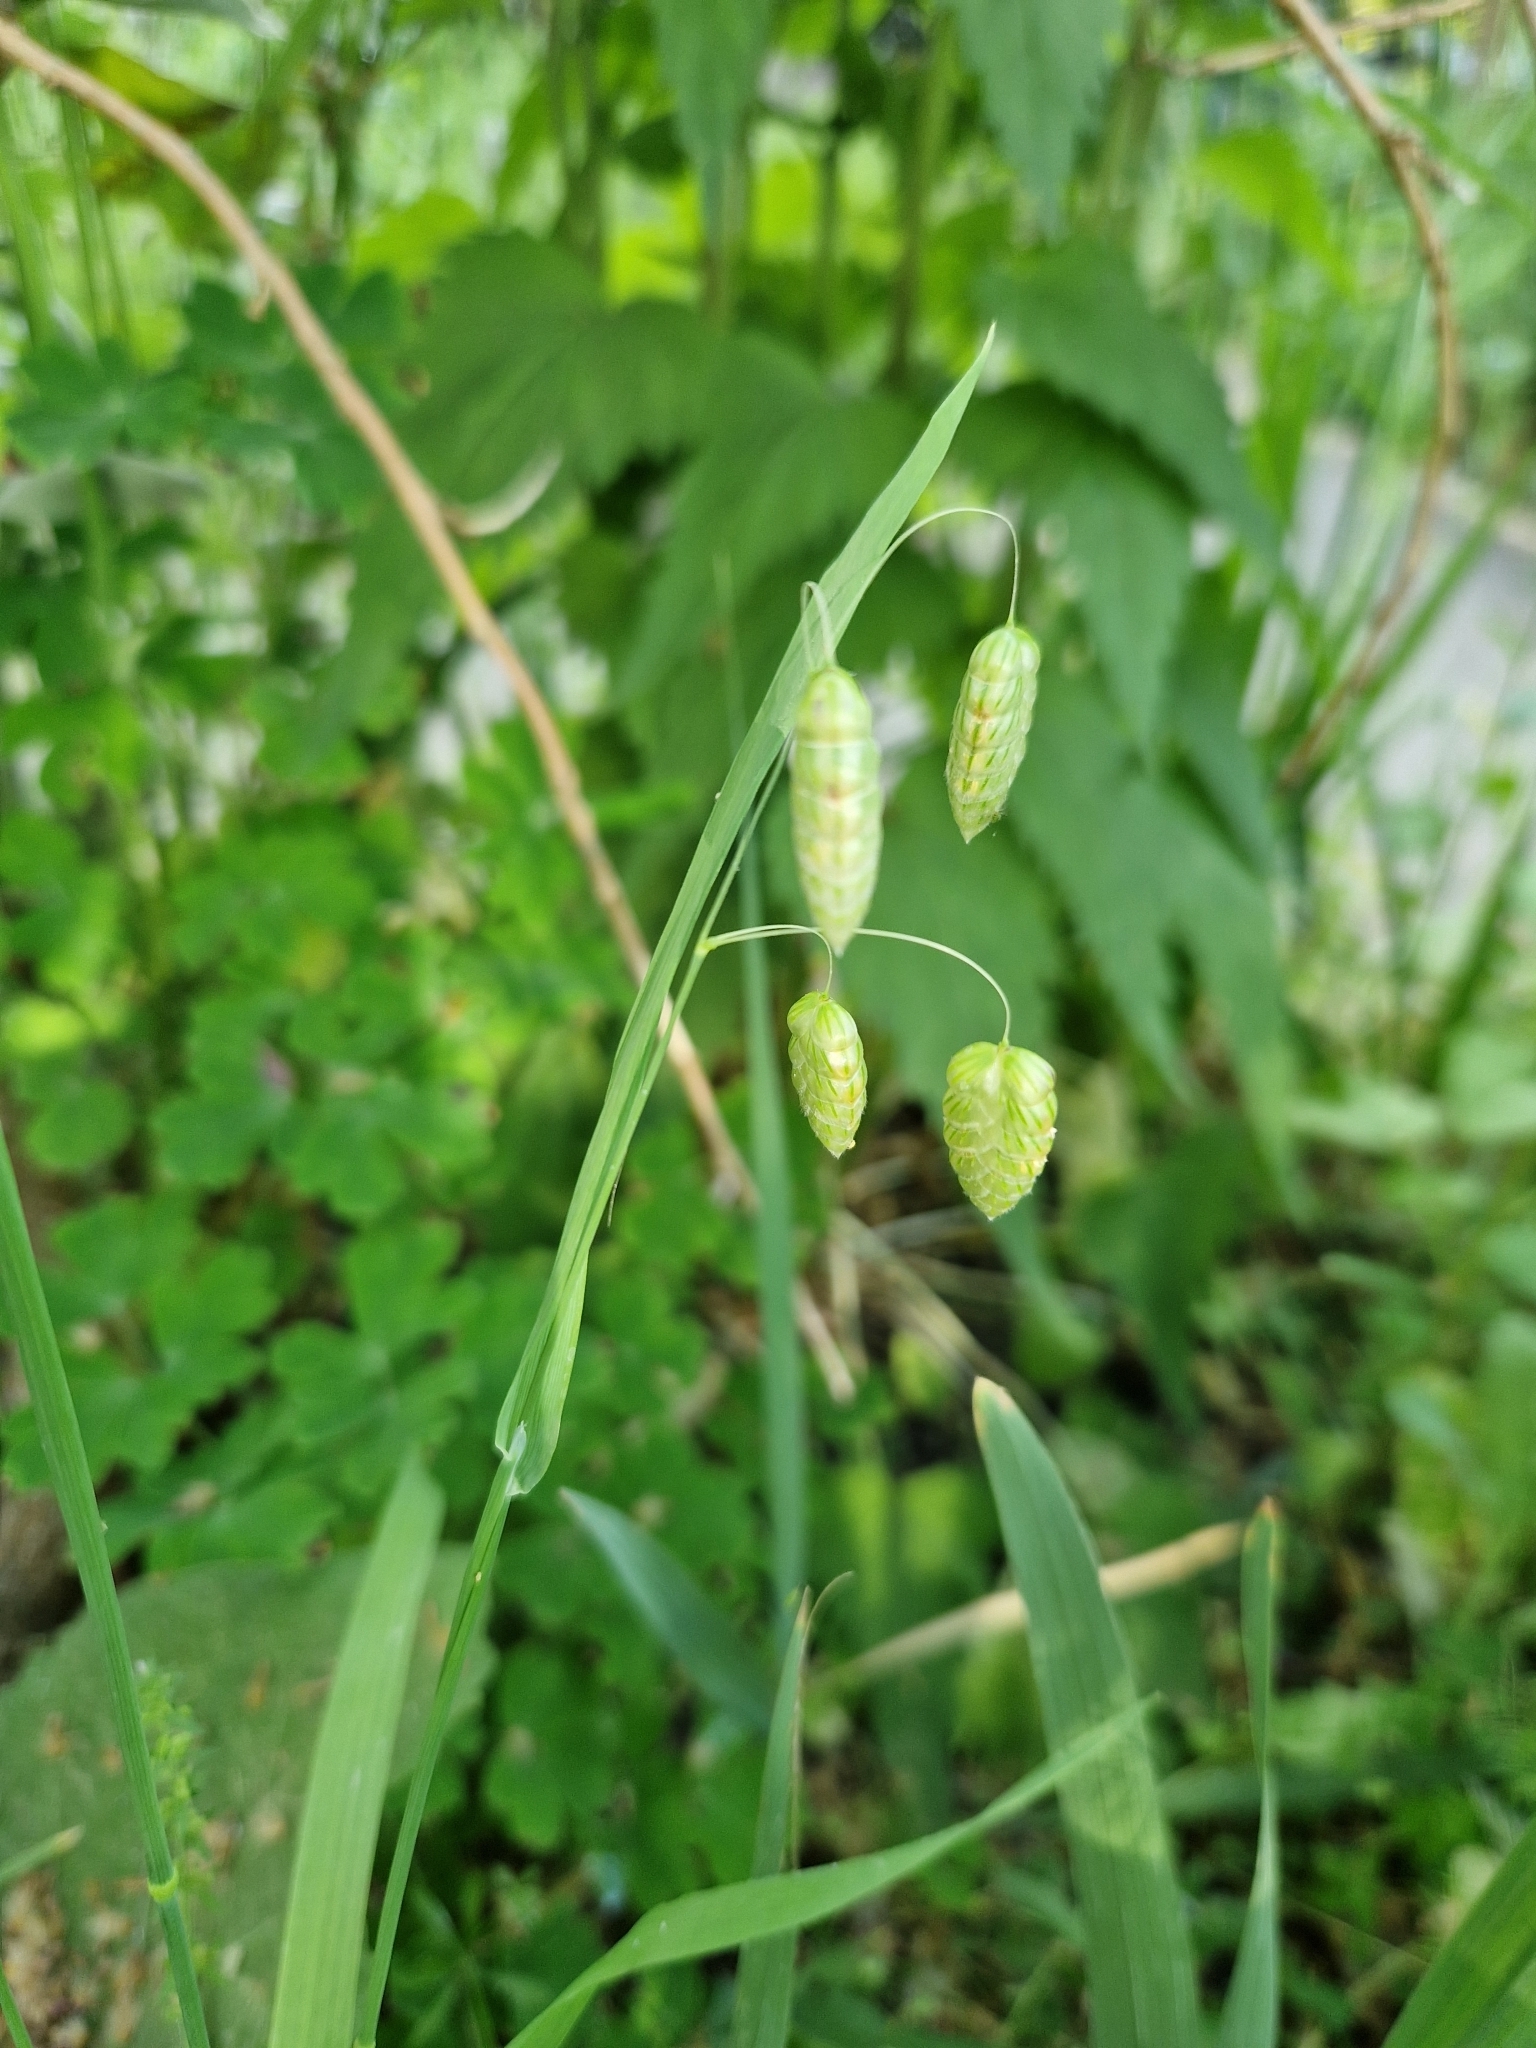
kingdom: Plantae
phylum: Tracheophyta
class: Liliopsida
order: Poales
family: Poaceae
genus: Briza
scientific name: Briza maxima
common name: Big quakinggrass
